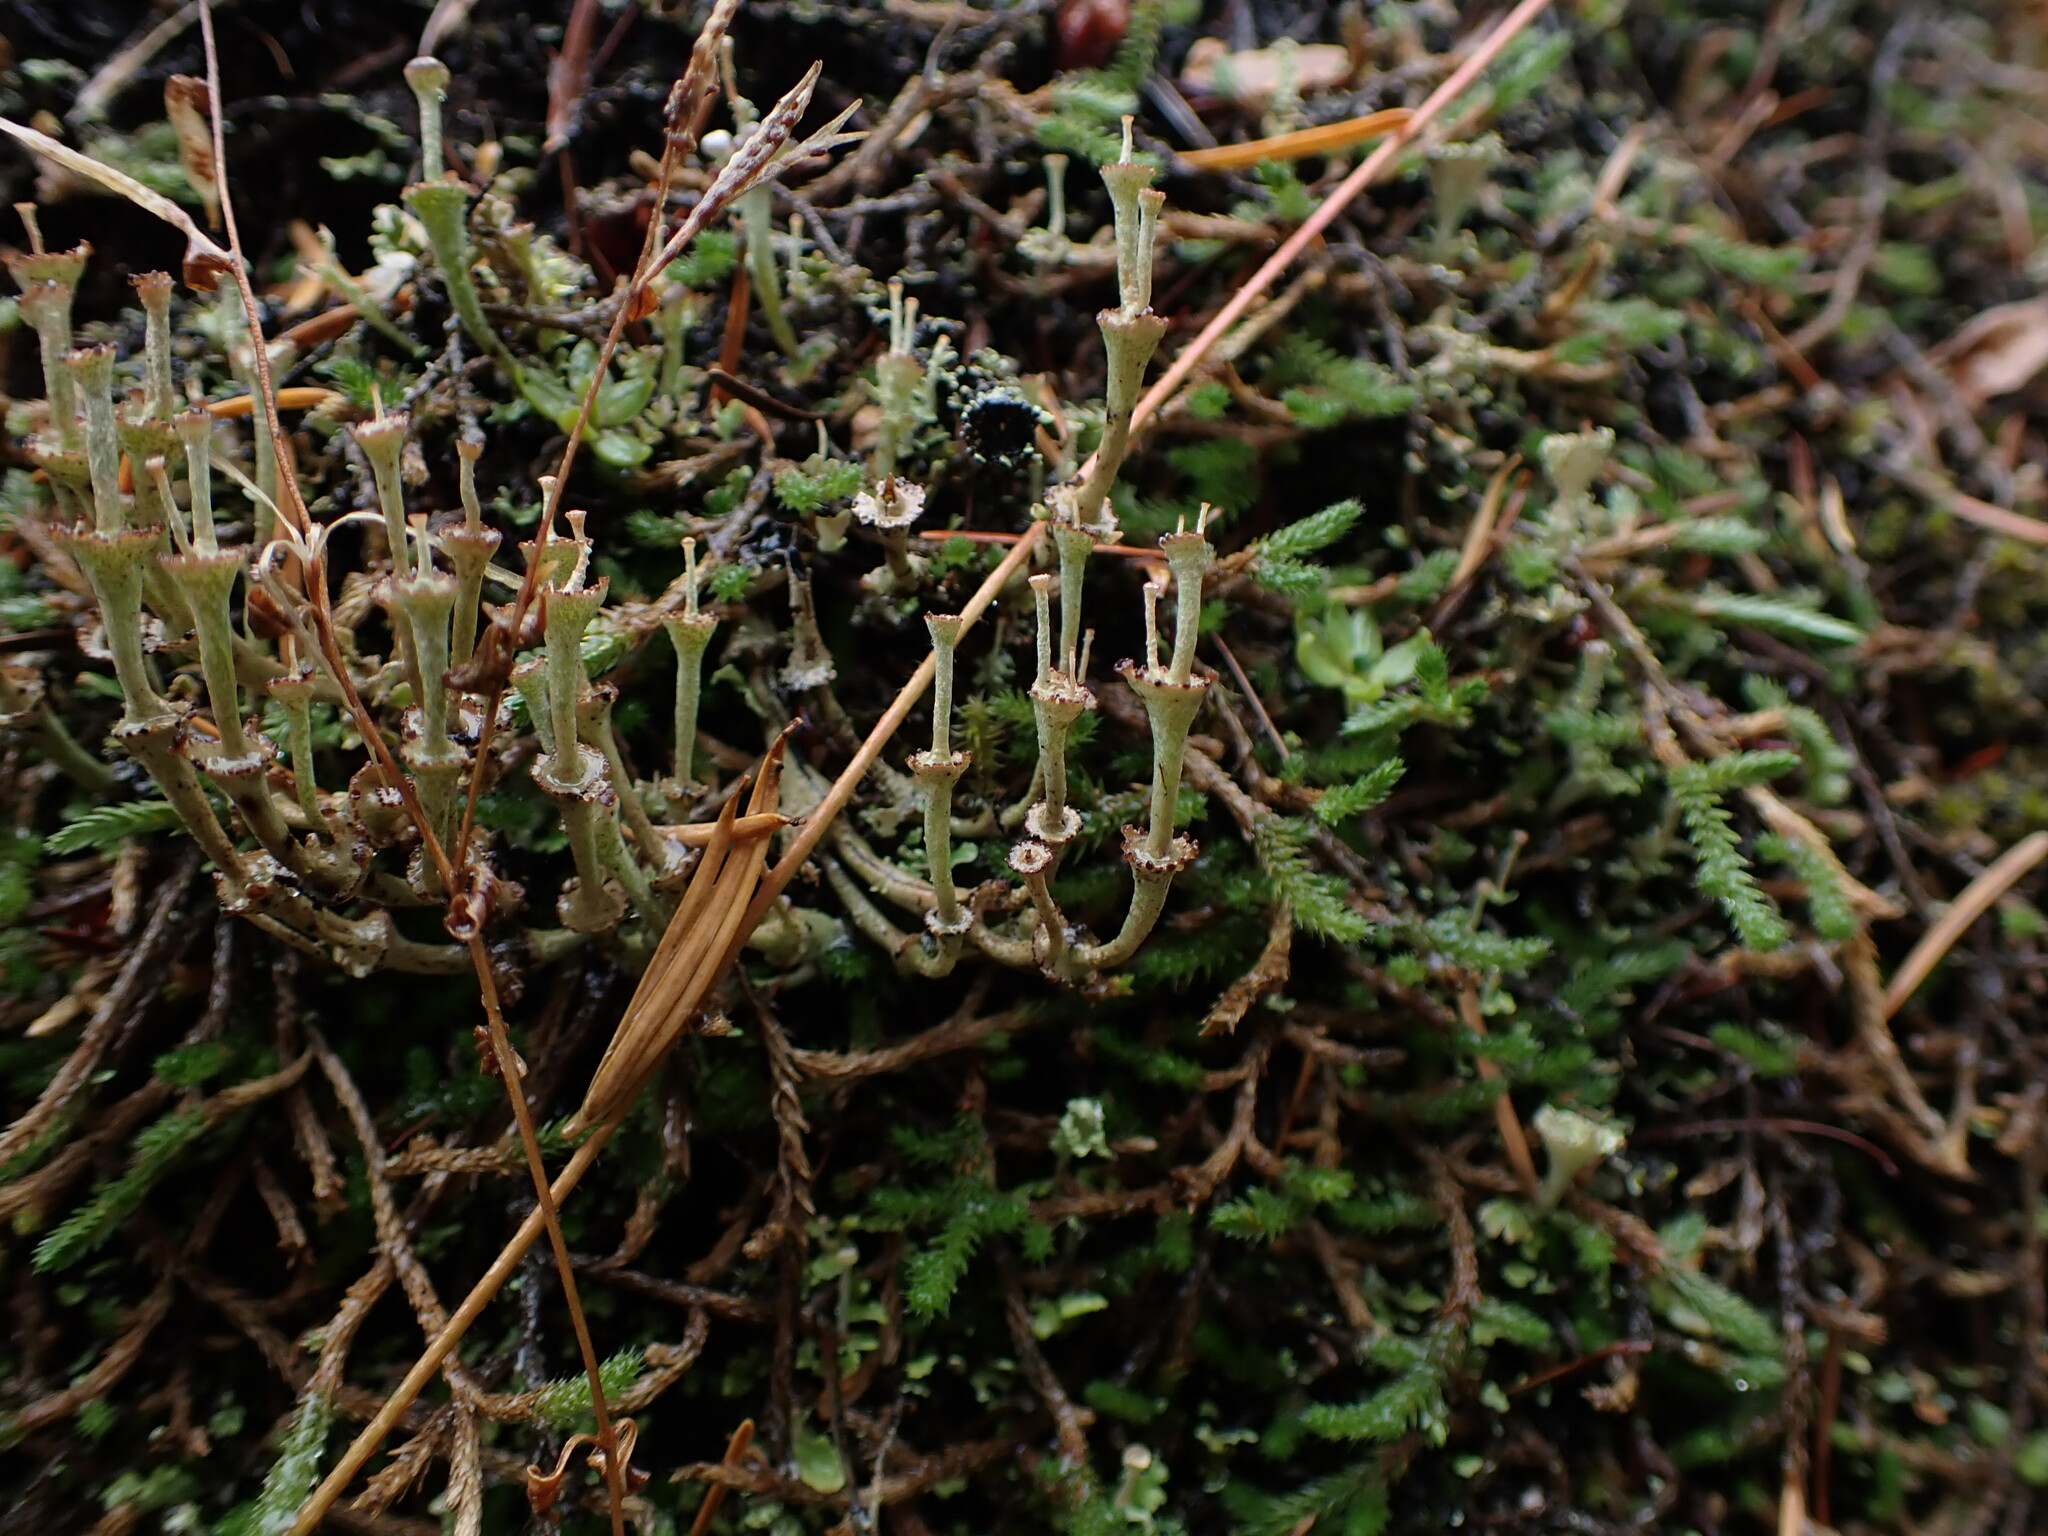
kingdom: Fungi
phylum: Ascomycota
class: Lecanoromycetes
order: Lecanorales
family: Cladoniaceae
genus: Cladonia
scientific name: Cladonia cervicornis
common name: Browned pixie-cup lichen
